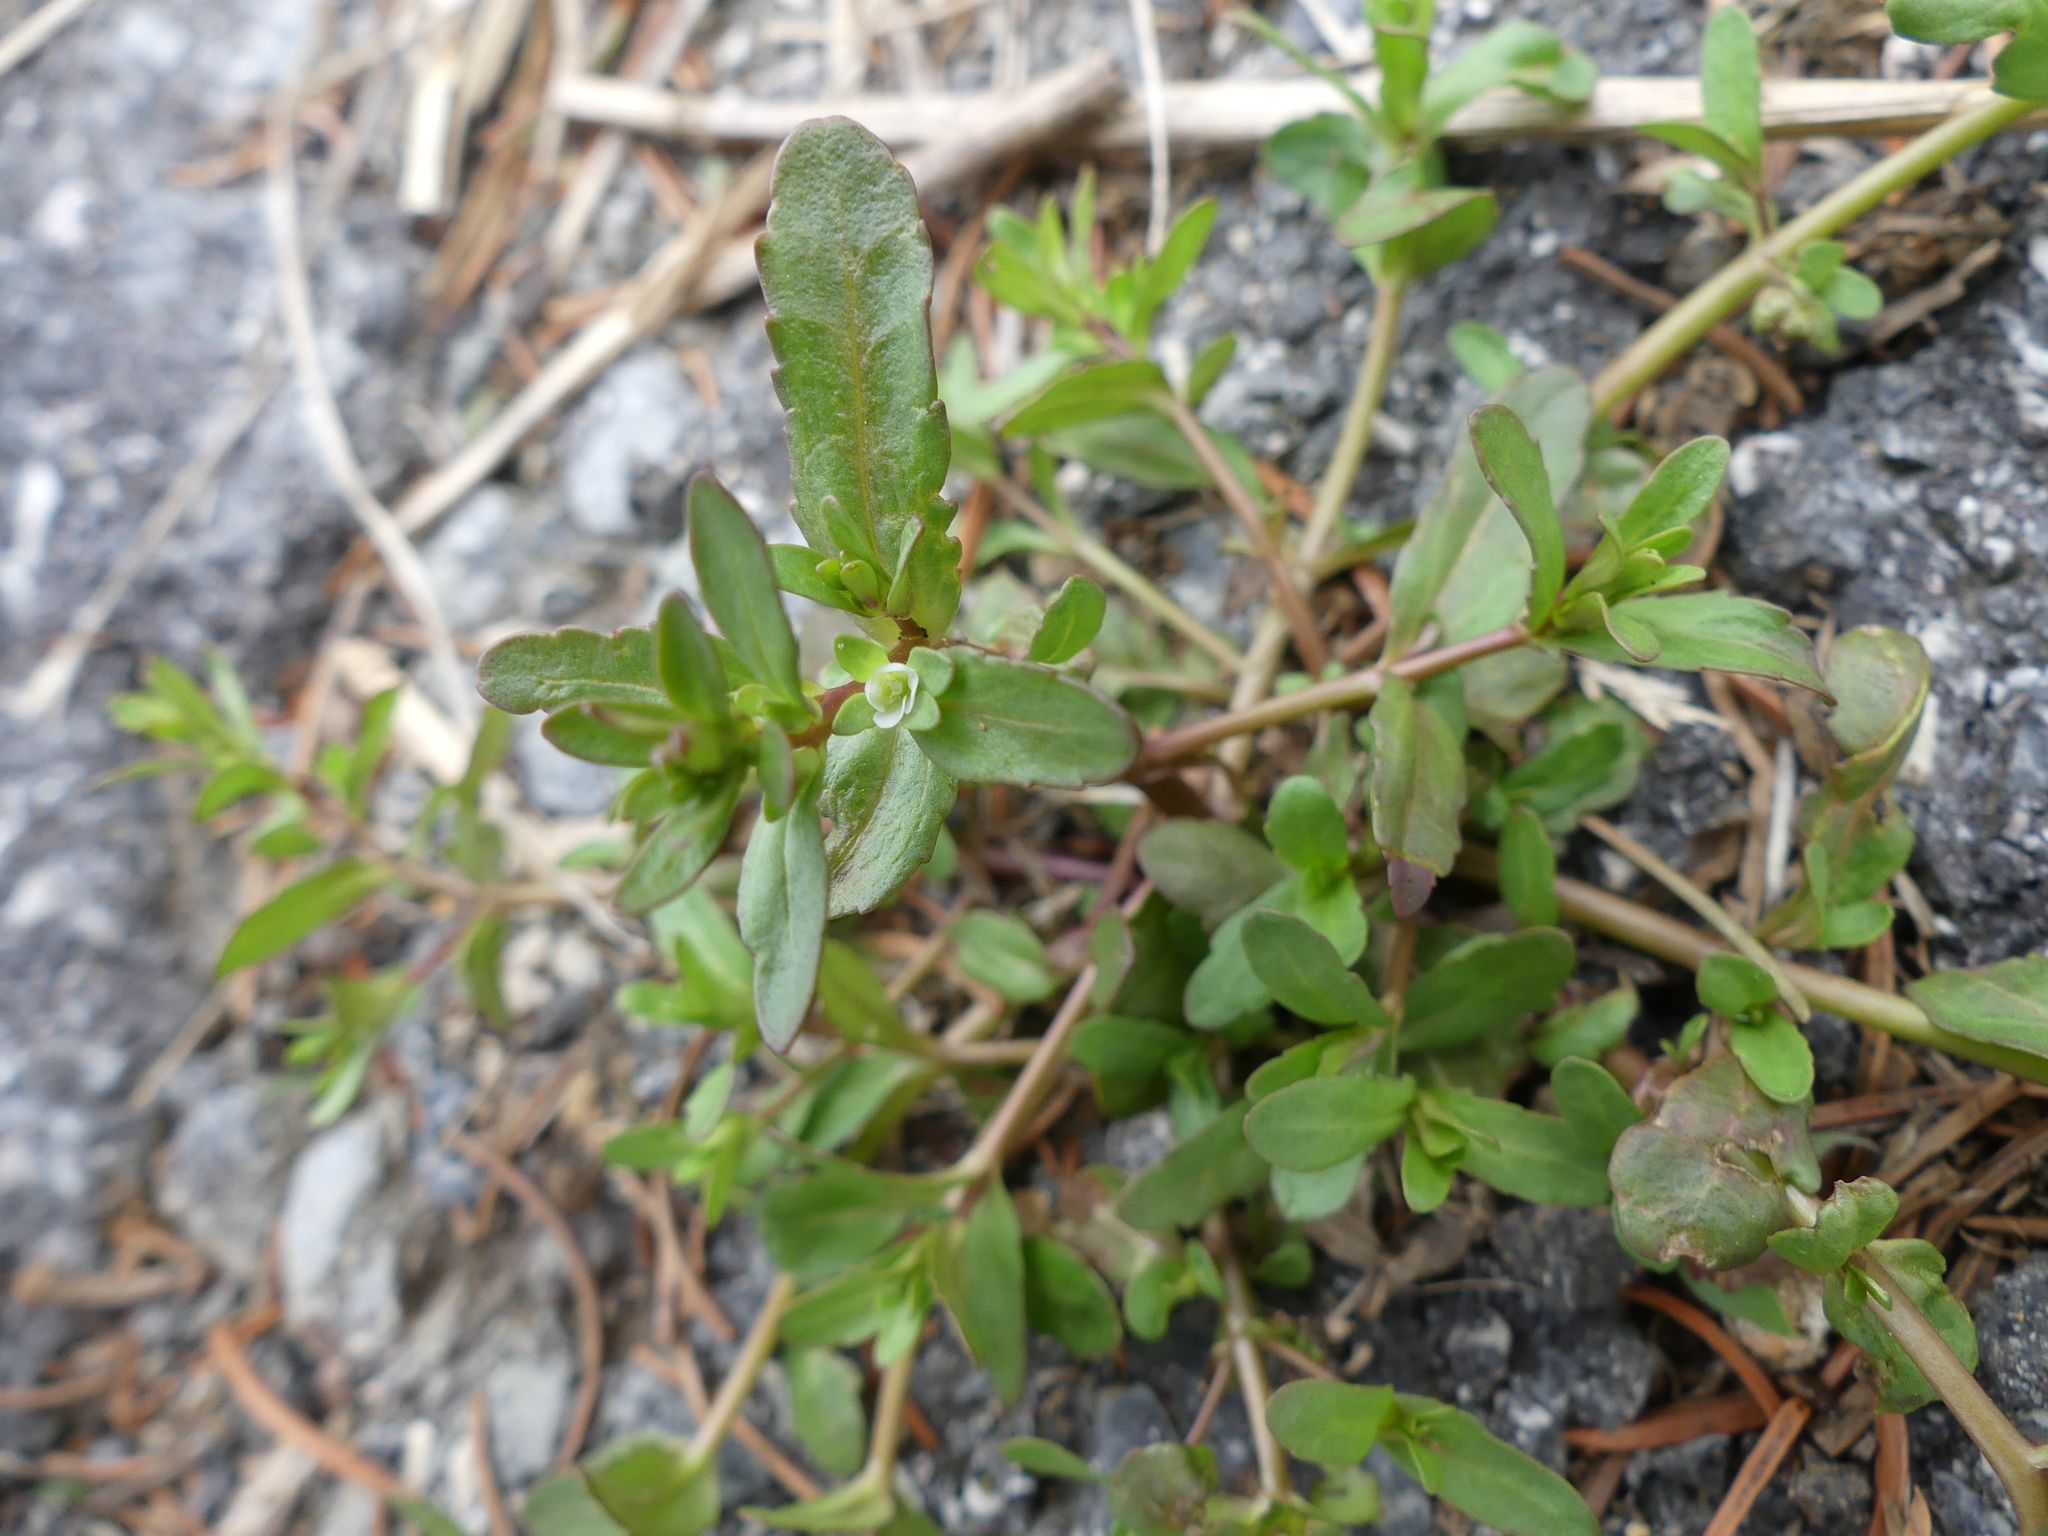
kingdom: Plantae
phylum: Tracheophyta
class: Magnoliopsida
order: Lamiales
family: Plantaginaceae
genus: Veronica
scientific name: Veronica peregrina
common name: Neckweed
